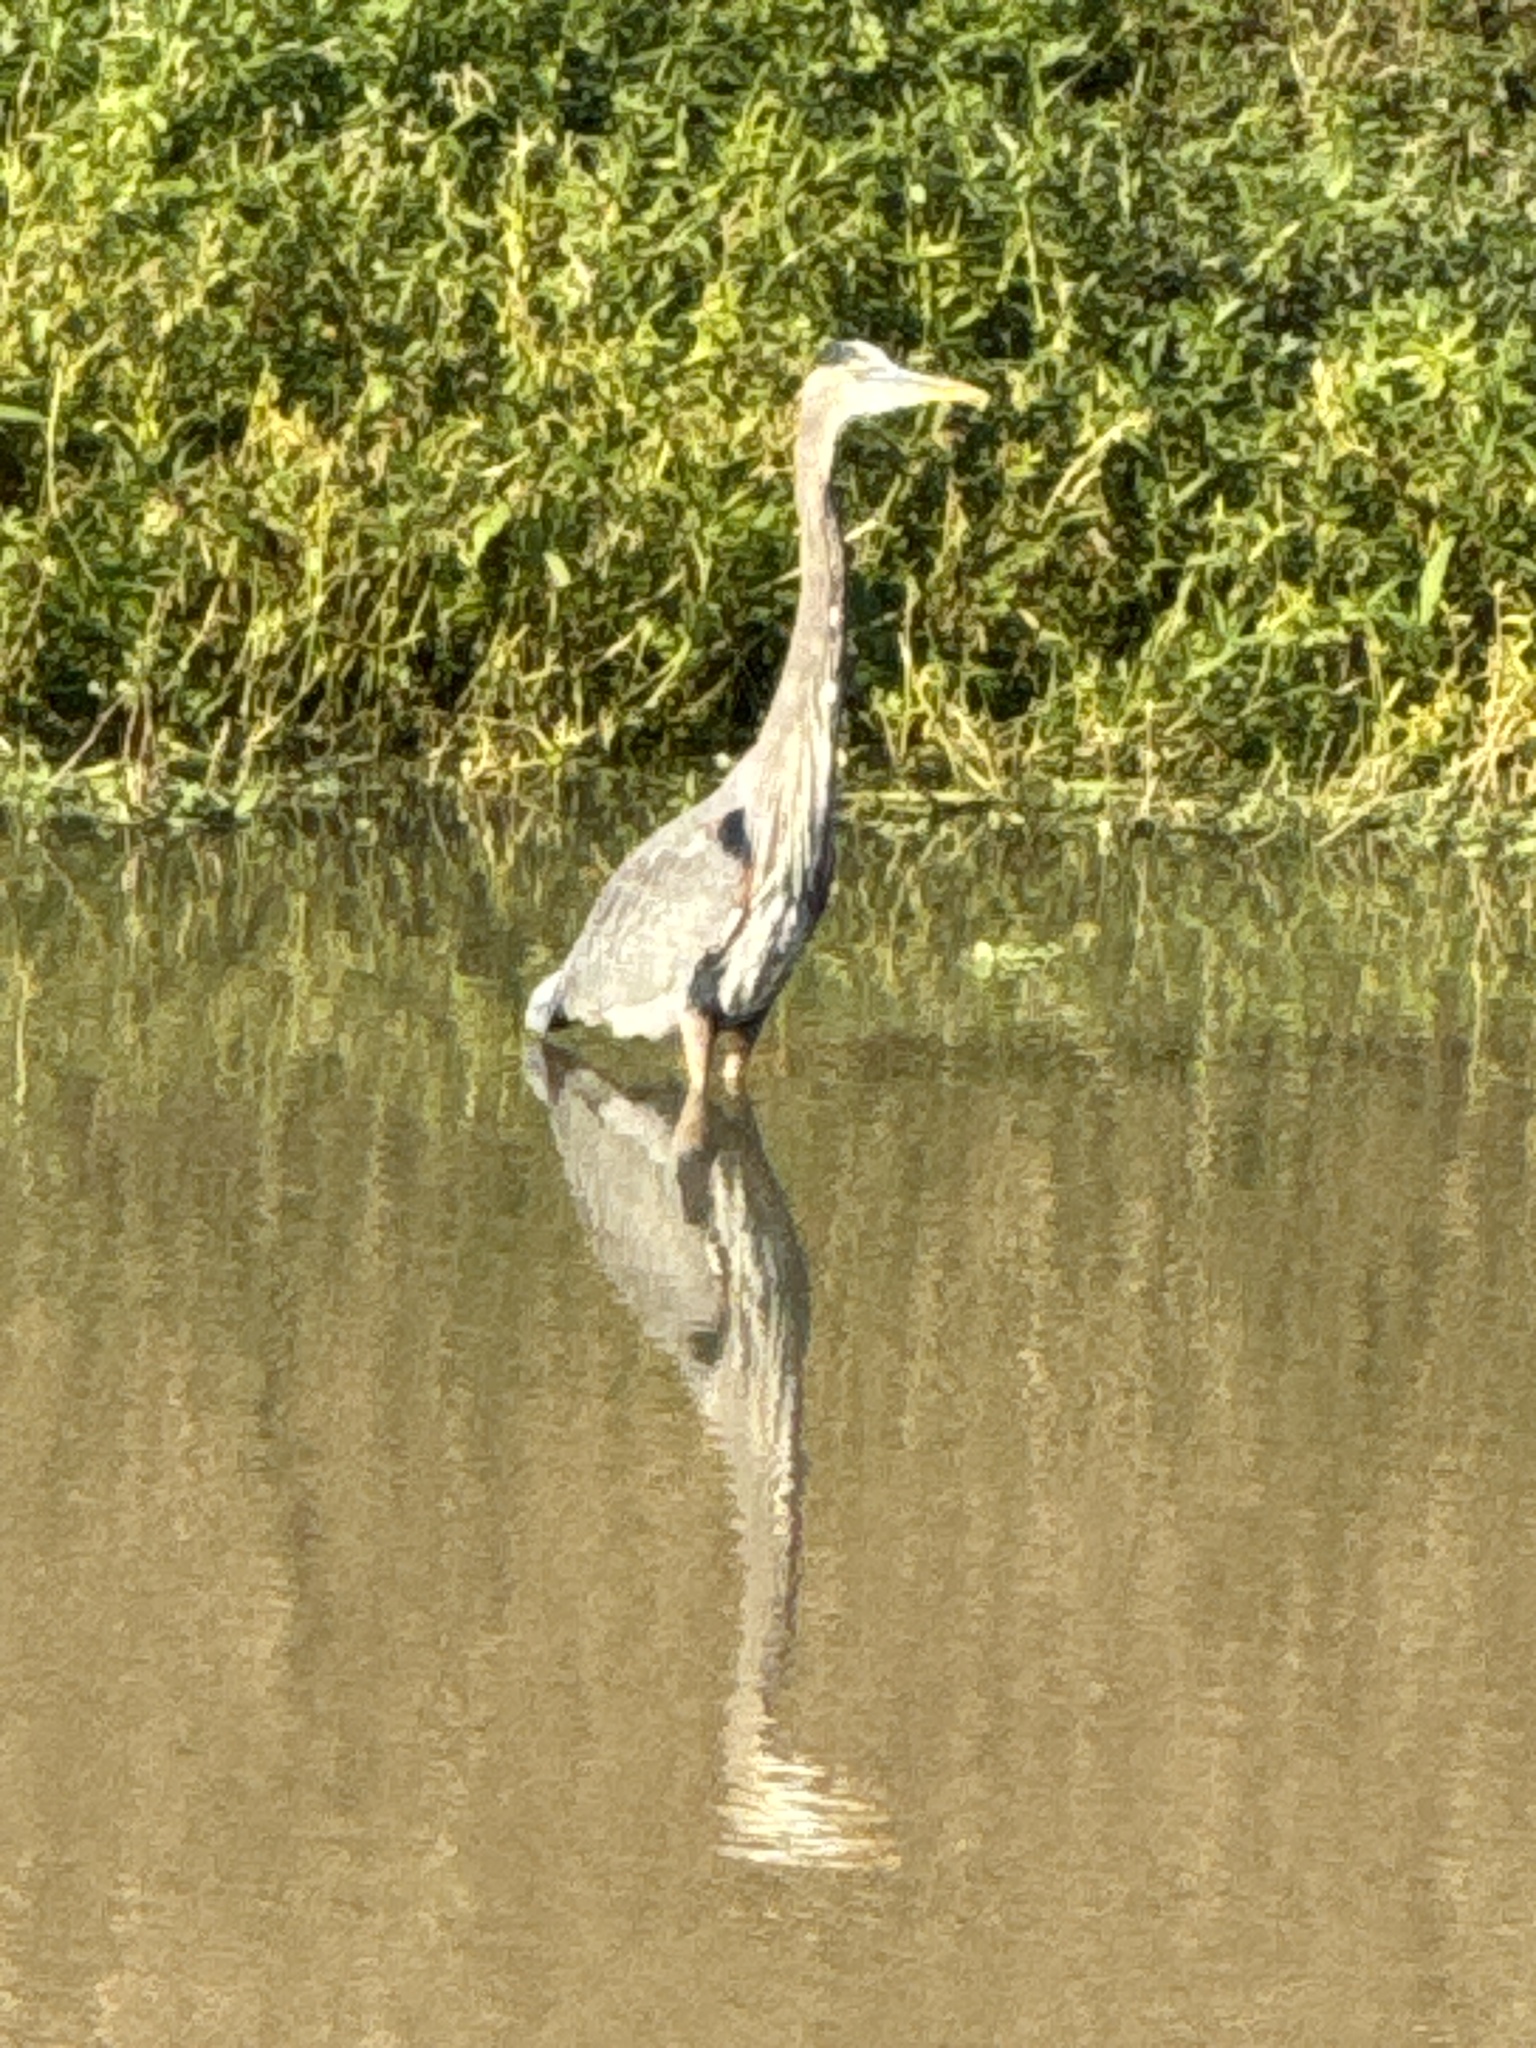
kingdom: Animalia
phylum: Chordata
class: Aves
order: Pelecaniformes
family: Ardeidae
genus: Ardea
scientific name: Ardea herodias
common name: Great blue heron
